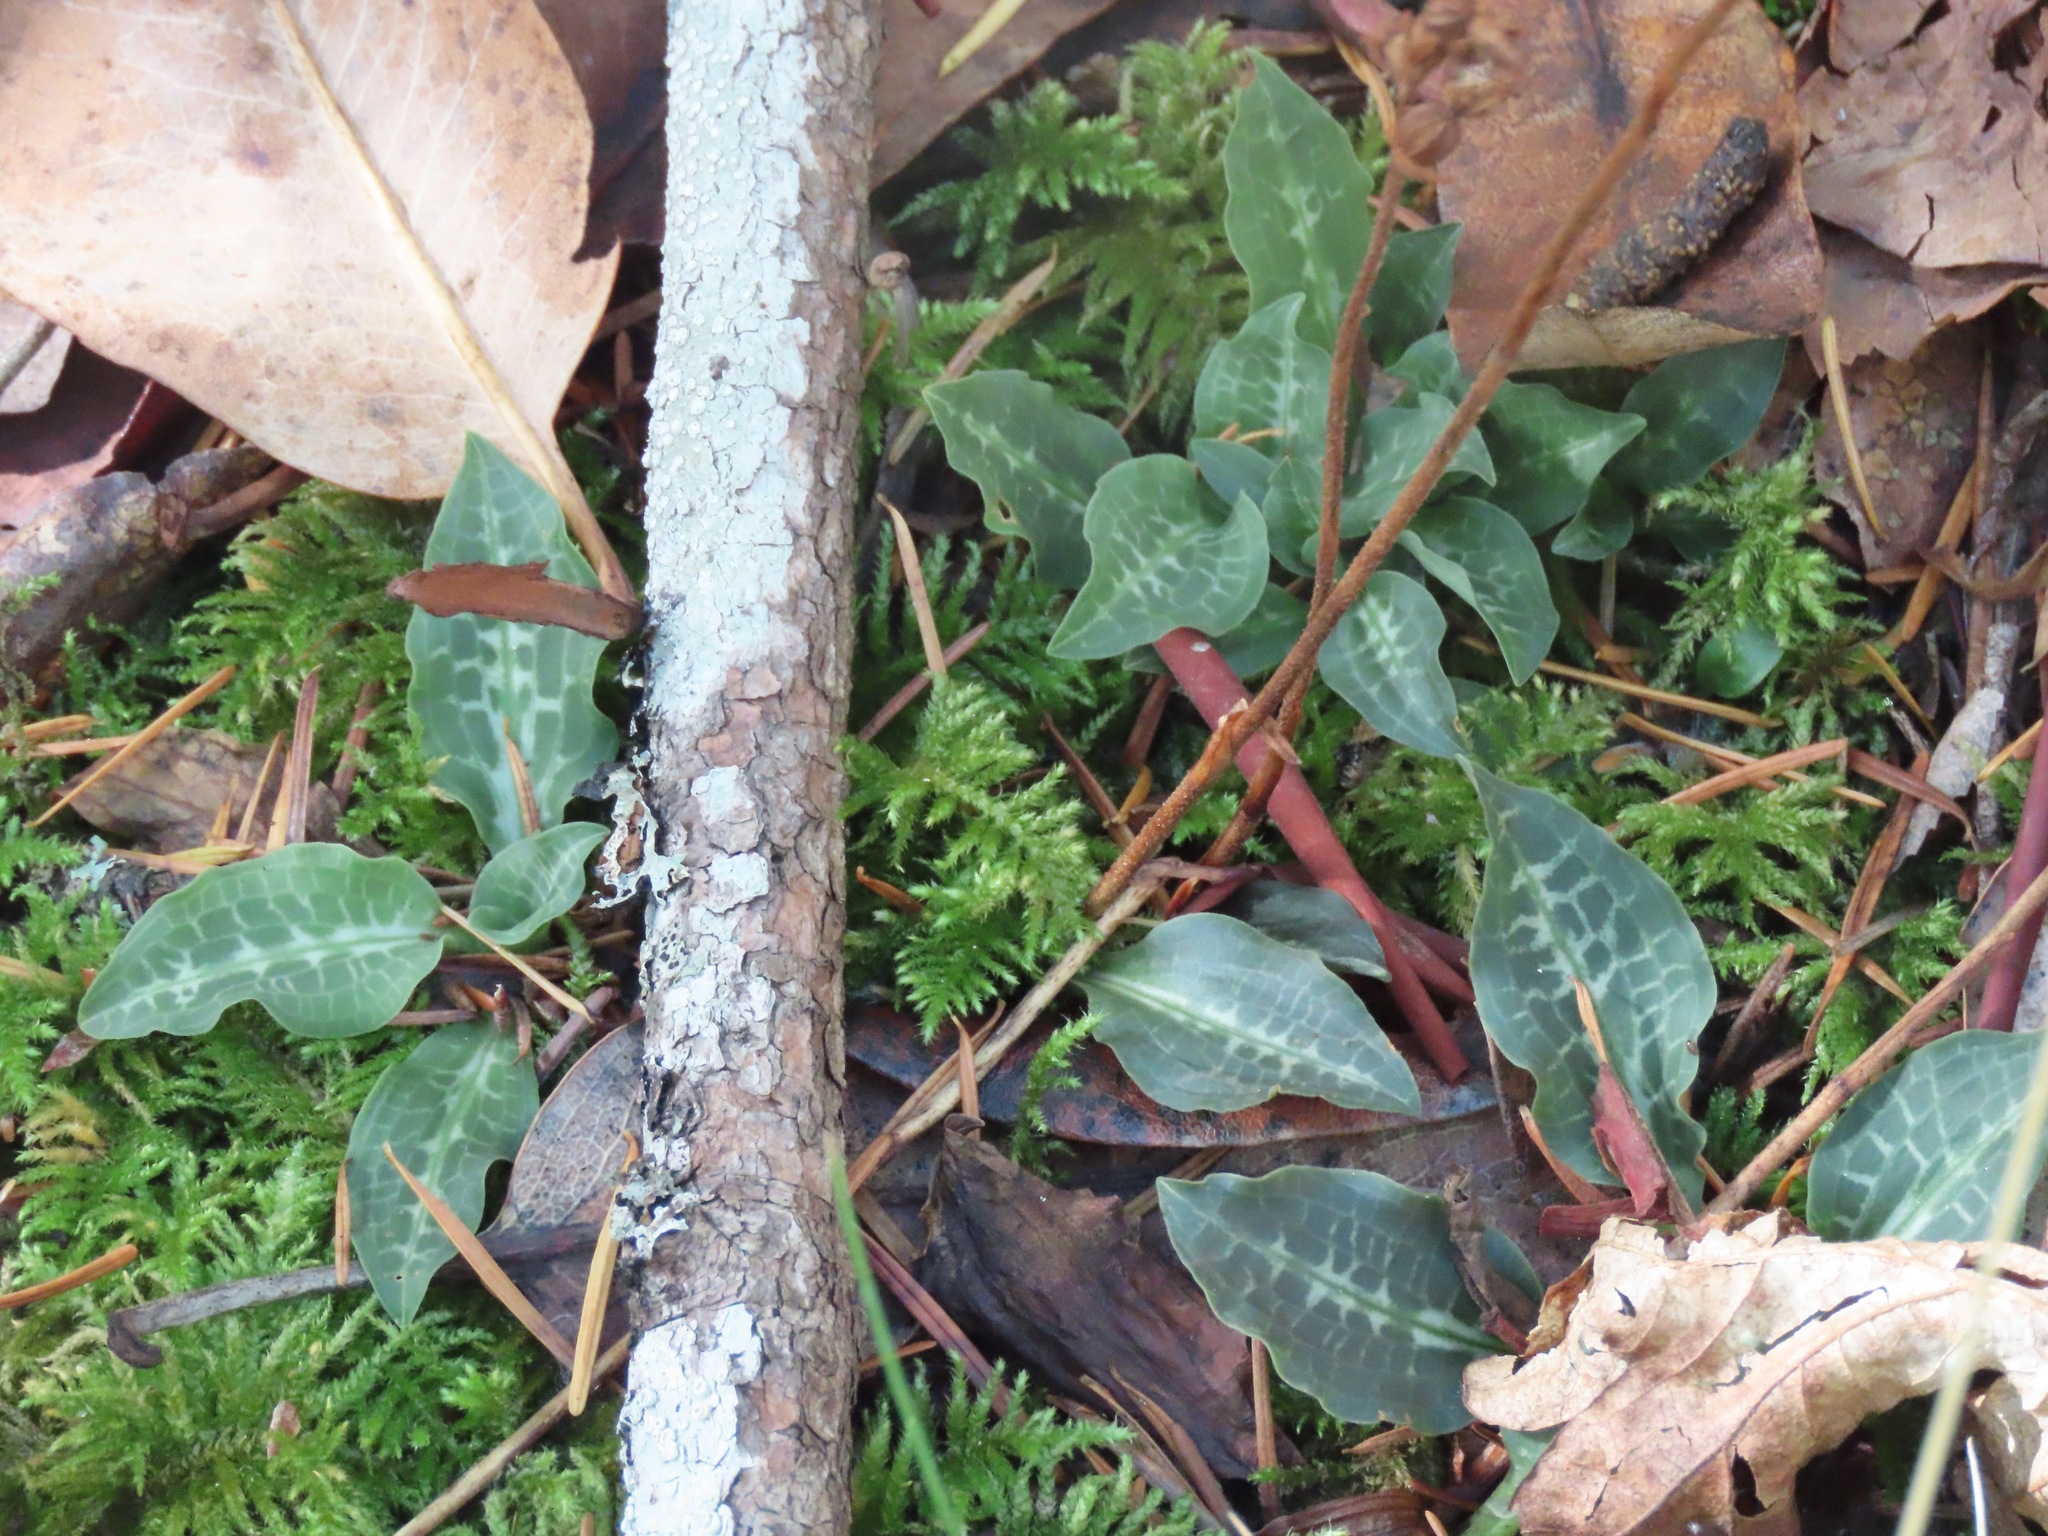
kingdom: Plantae
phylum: Tracheophyta
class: Liliopsida
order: Asparagales
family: Orchidaceae
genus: Goodyera
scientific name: Goodyera oblongifolia
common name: Giant rattlesnake-plantain
